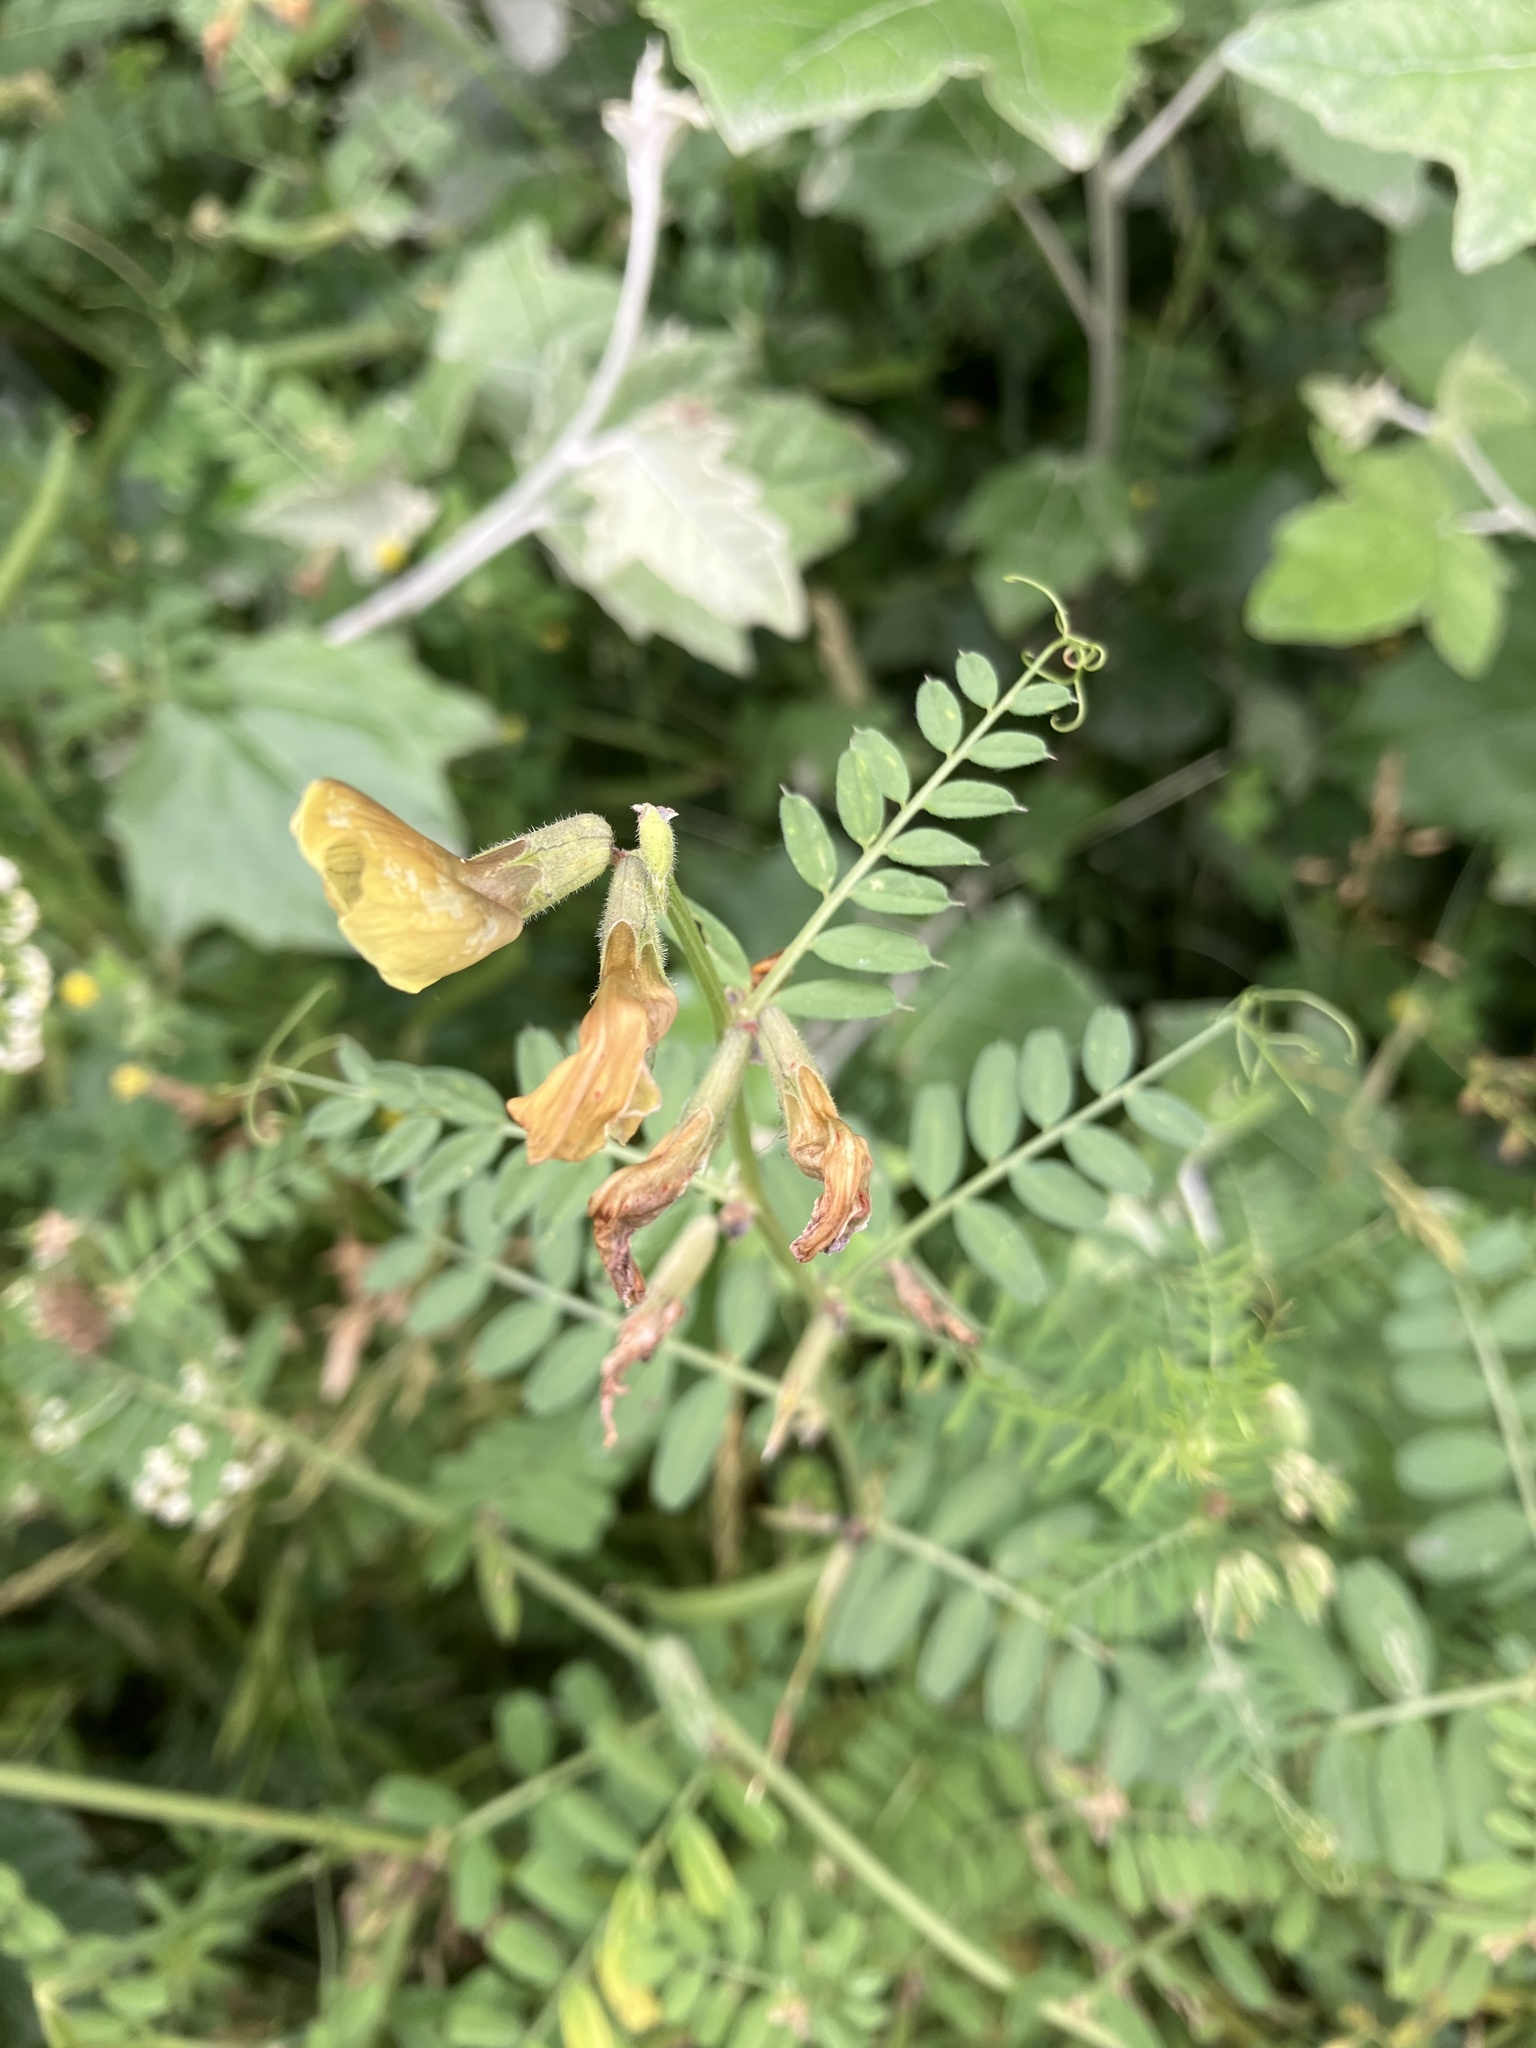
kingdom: Plantae
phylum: Tracheophyta
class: Magnoliopsida
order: Fabales
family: Fabaceae
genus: Vicia
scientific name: Vicia grandiflora
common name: Large yellow vetch
